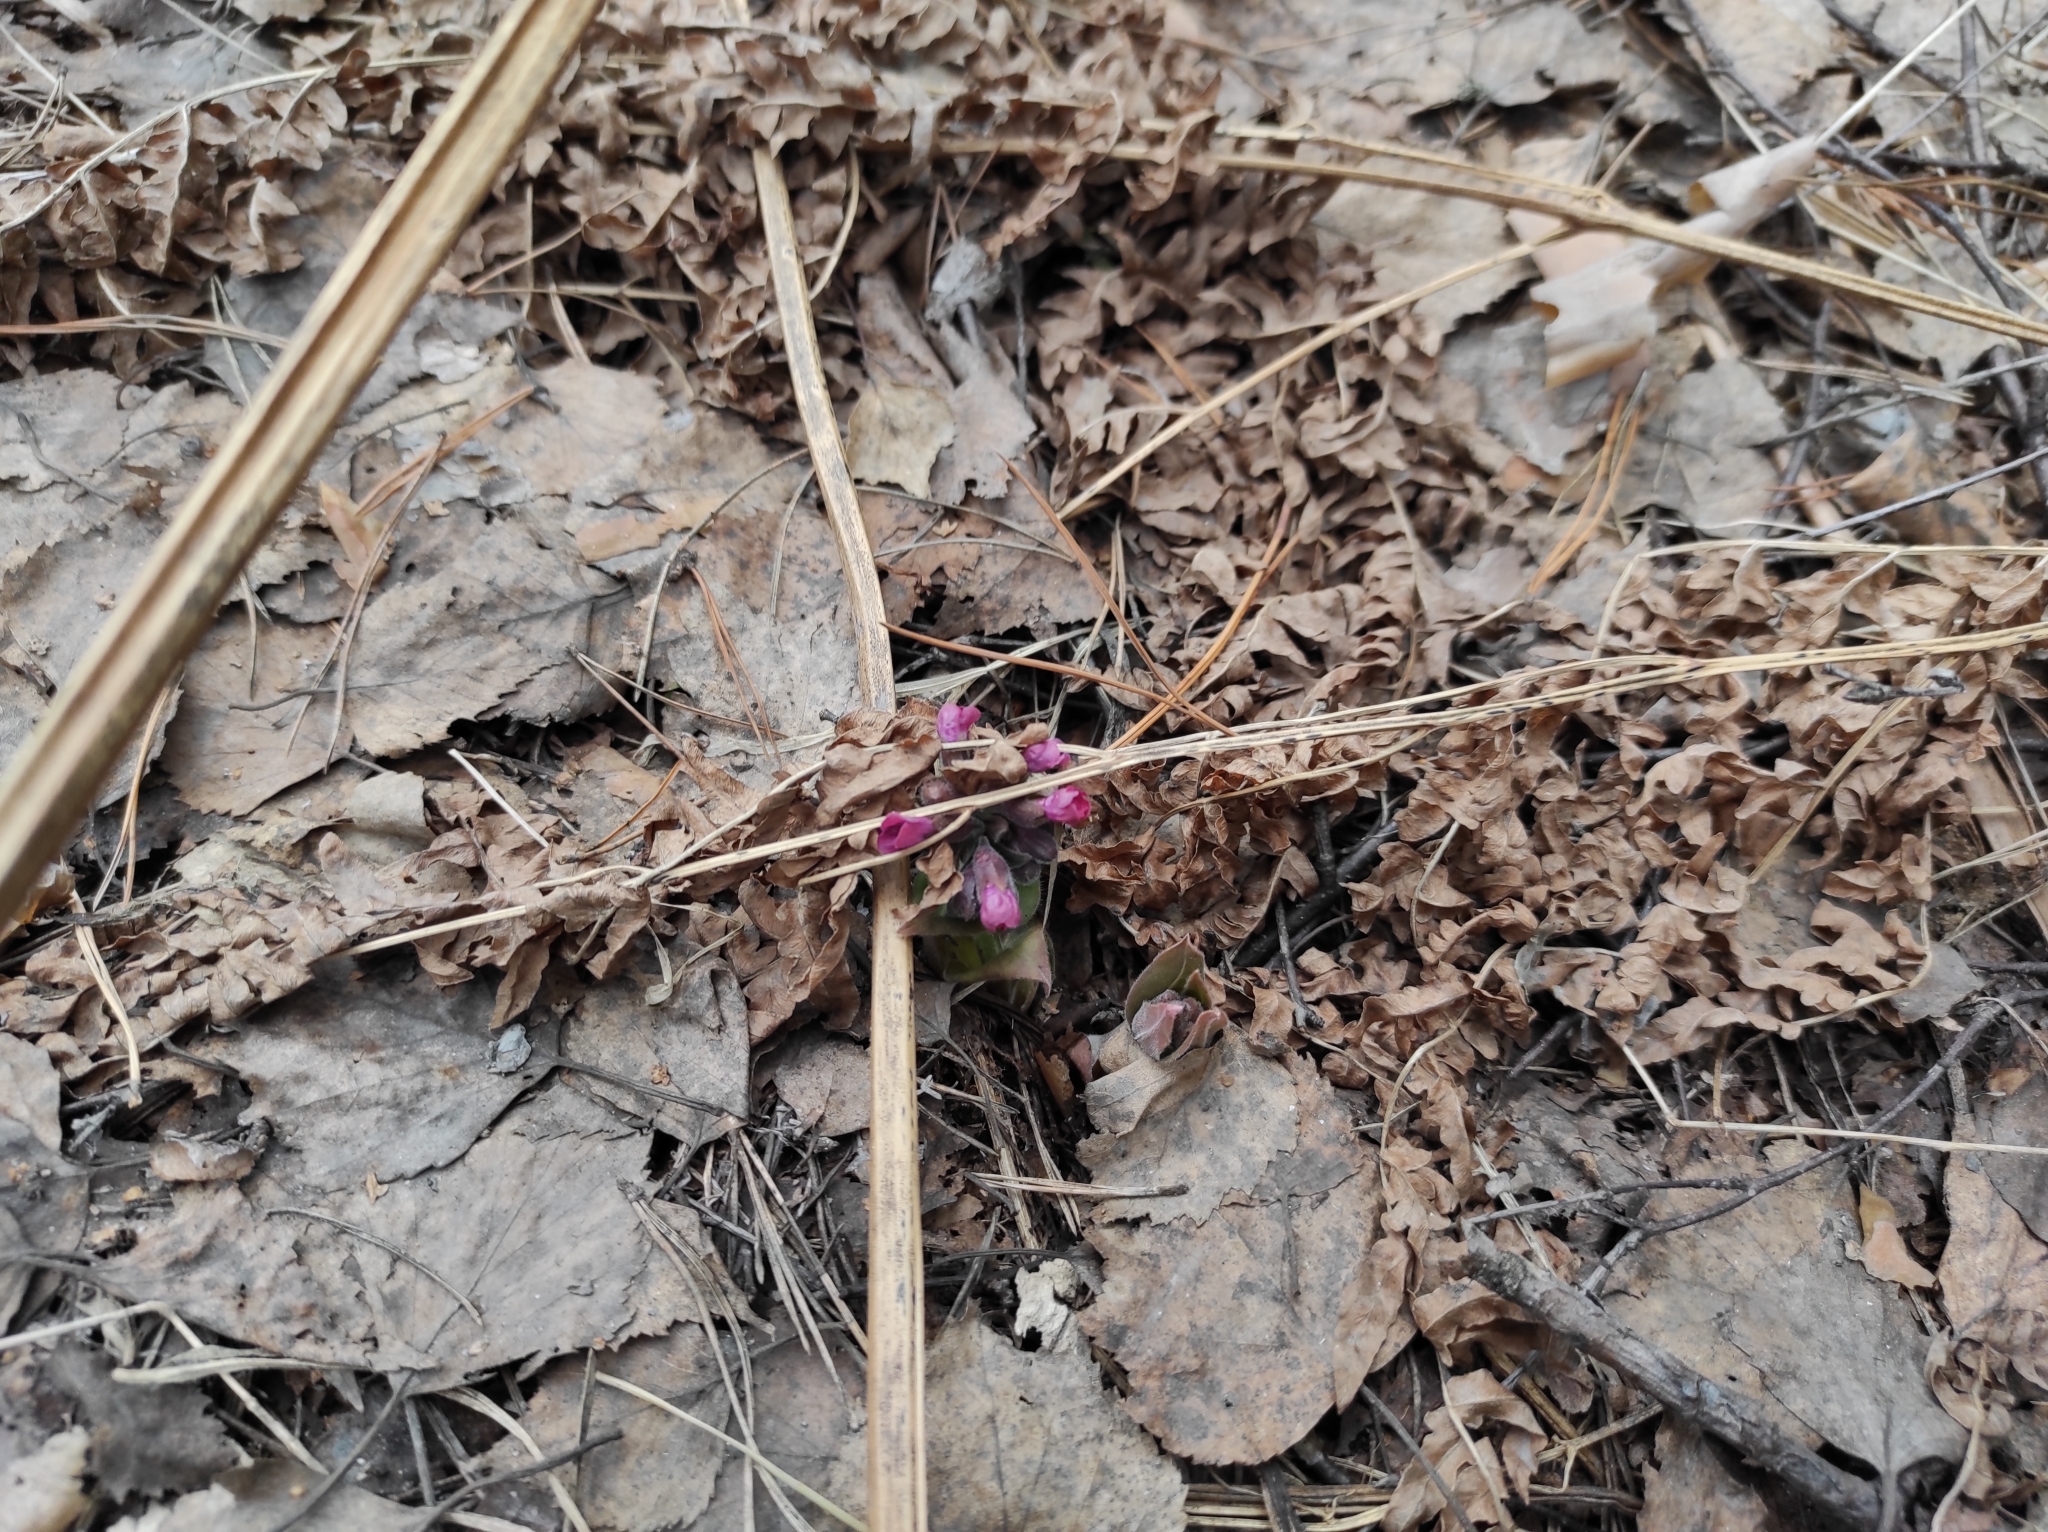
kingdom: Plantae
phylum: Tracheophyta
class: Magnoliopsida
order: Boraginales
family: Boraginaceae
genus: Pulmonaria
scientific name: Pulmonaria mollis
